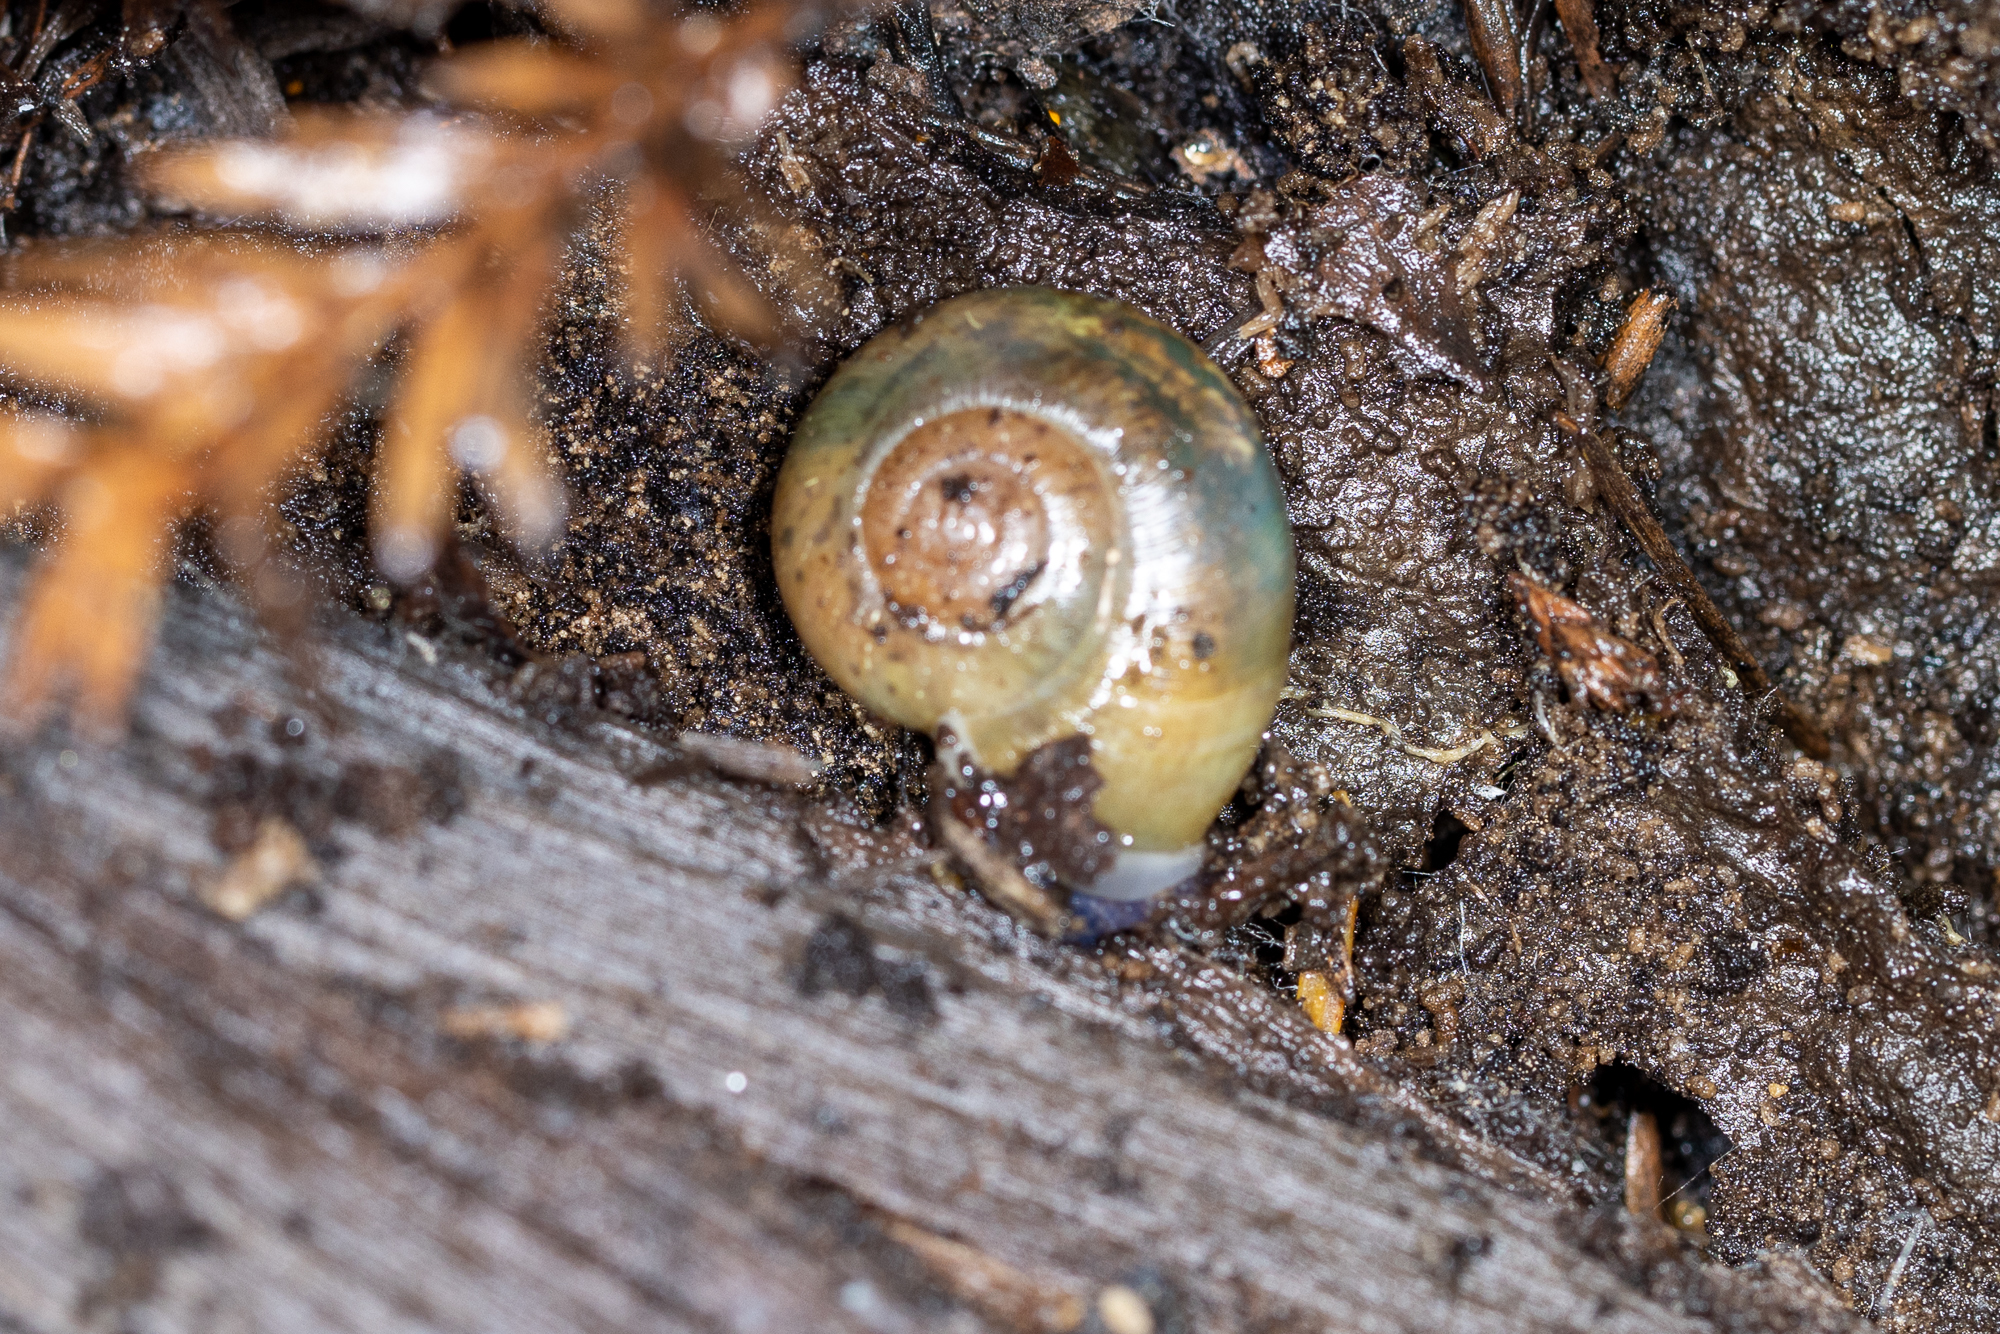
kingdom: Animalia
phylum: Mollusca
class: Gastropoda
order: Stylommatophora
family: Haplotrematidae
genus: Haplotrema
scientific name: Haplotrema minimum
